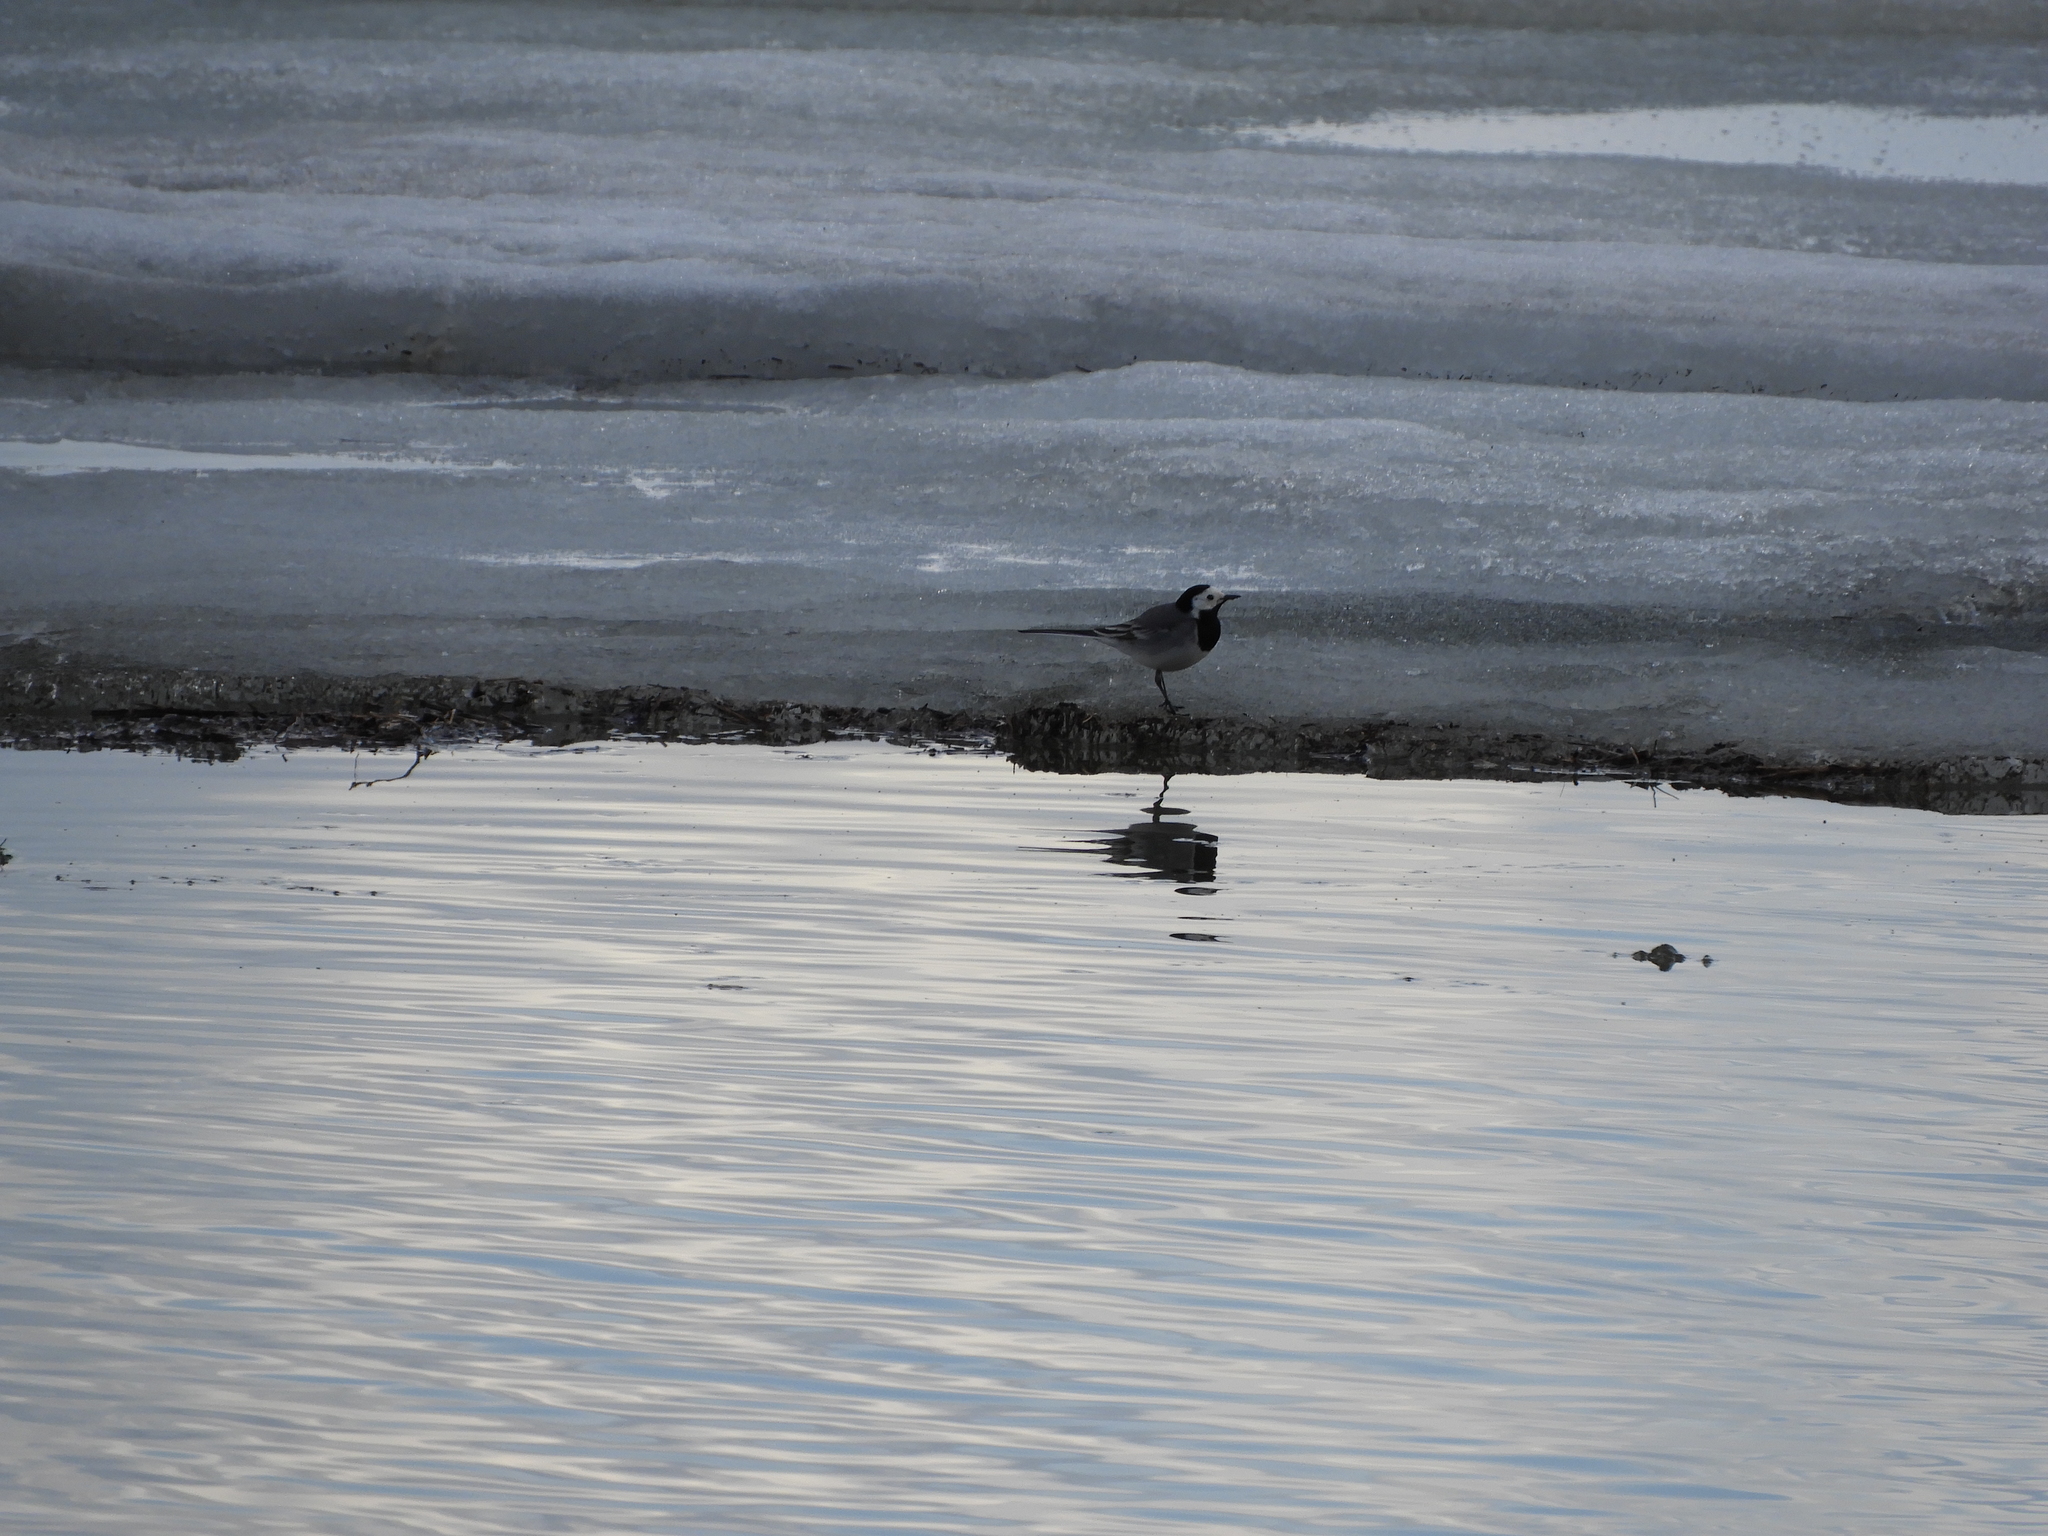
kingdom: Animalia
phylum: Chordata
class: Aves
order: Passeriformes
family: Motacillidae
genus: Motacilla
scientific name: Motacilla alba
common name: White wagtail
